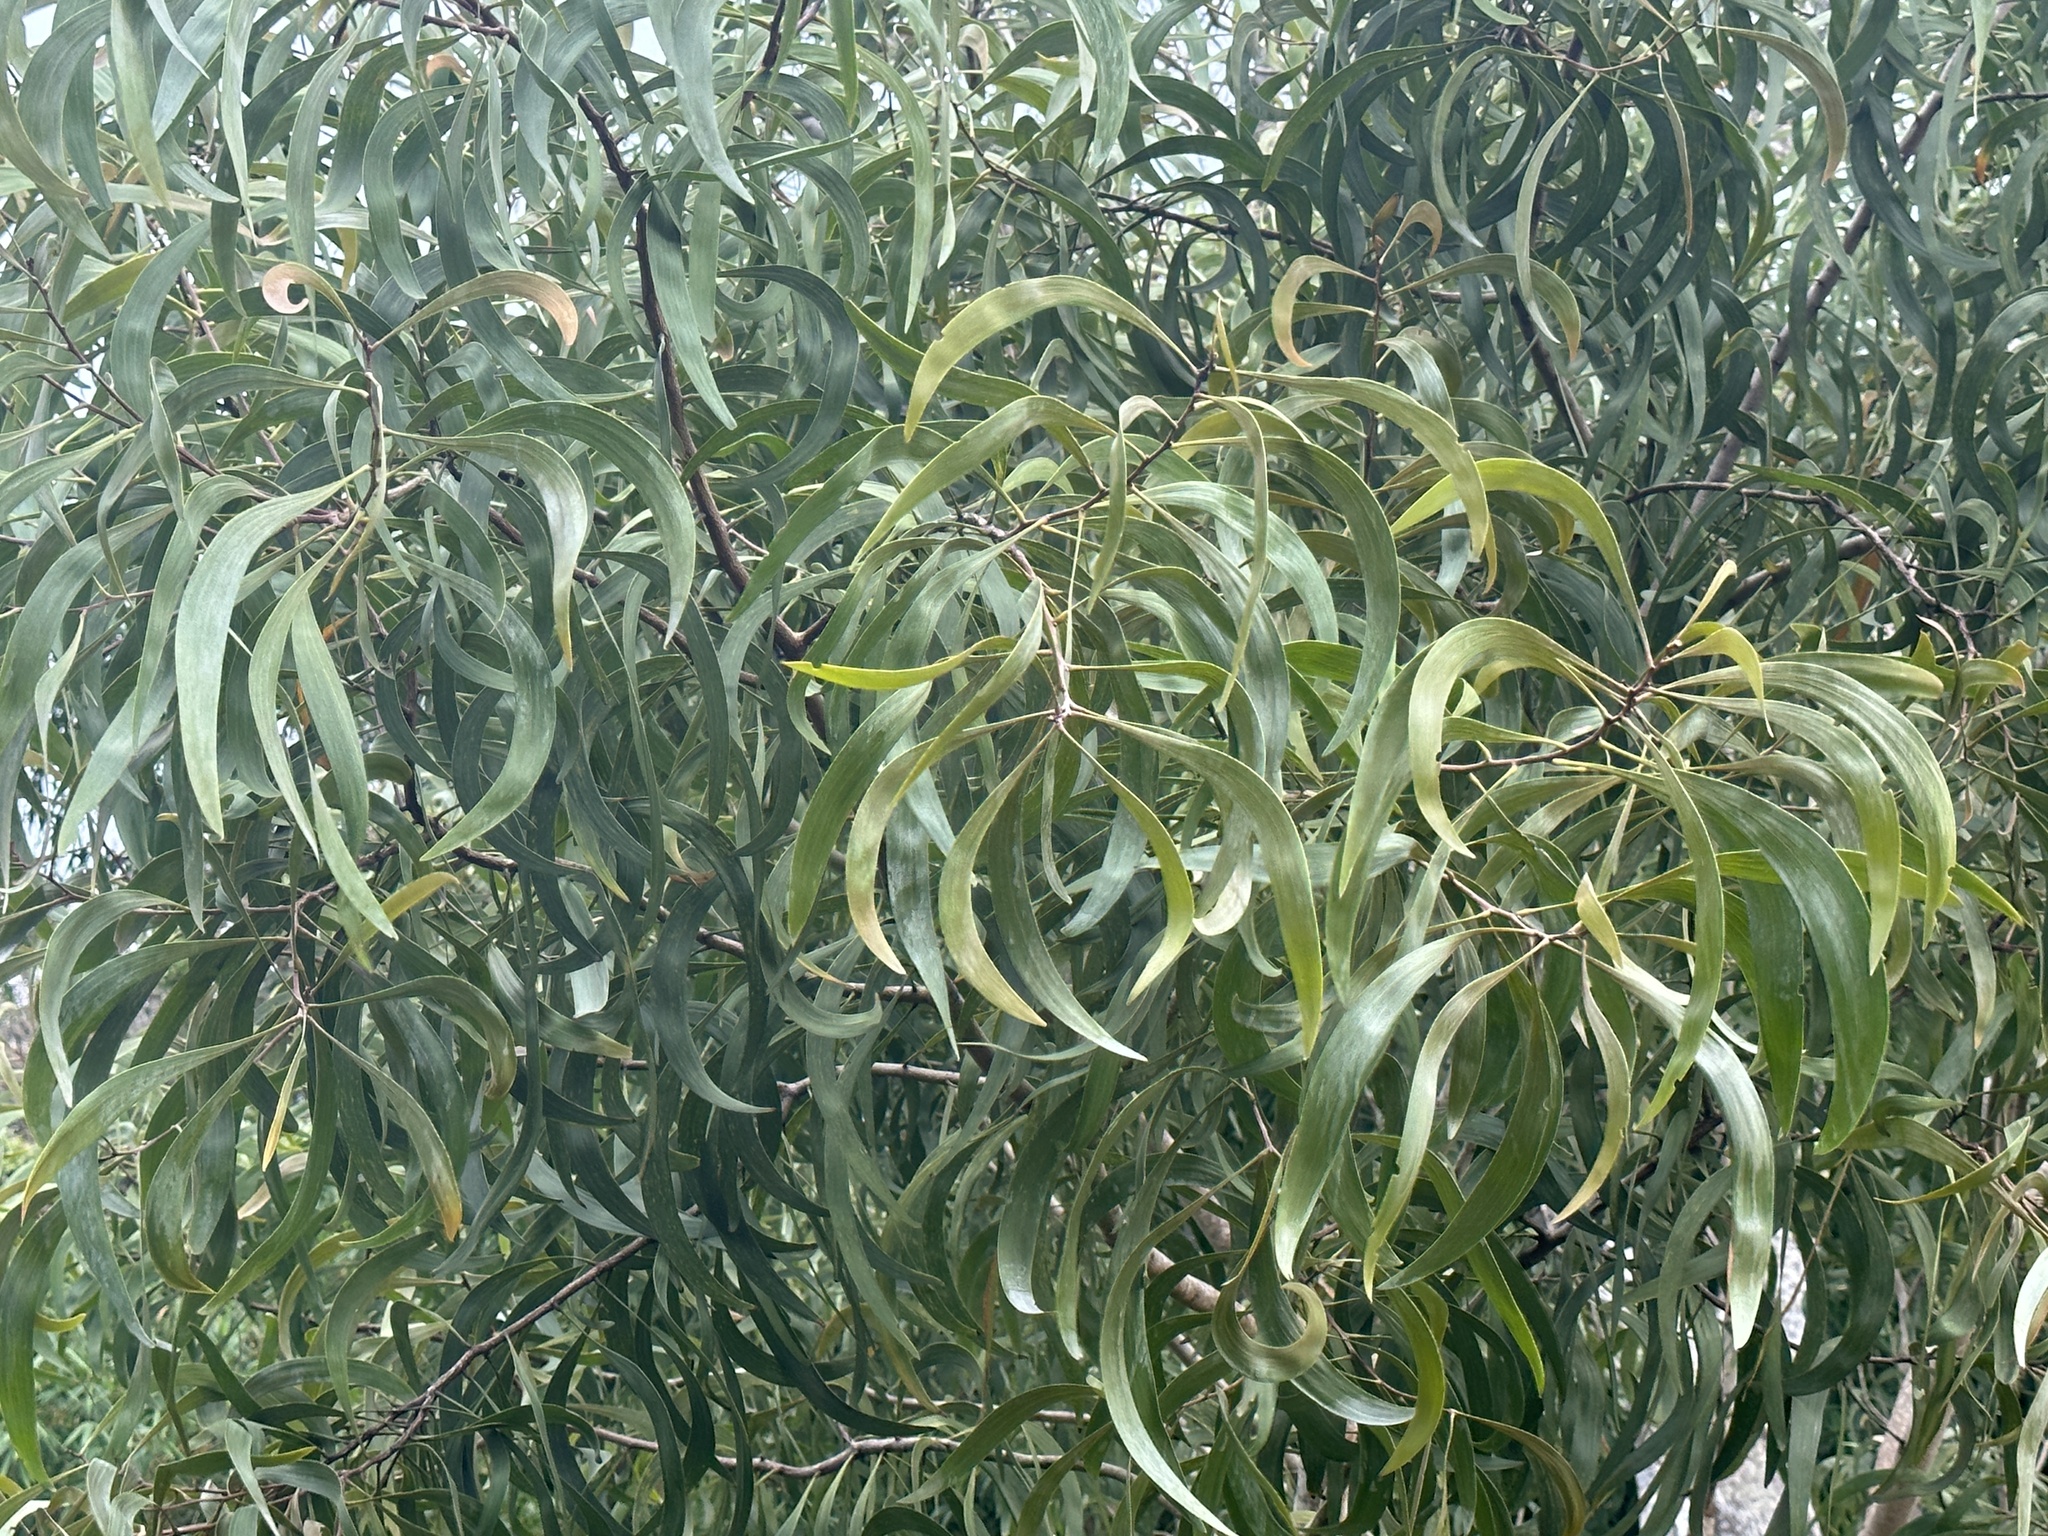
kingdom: Plantae
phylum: Tracheophyta
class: Magnoliopsida
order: Fabales
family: Fabaceae
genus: Acacia
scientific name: Acacia koa
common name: Gray koa
